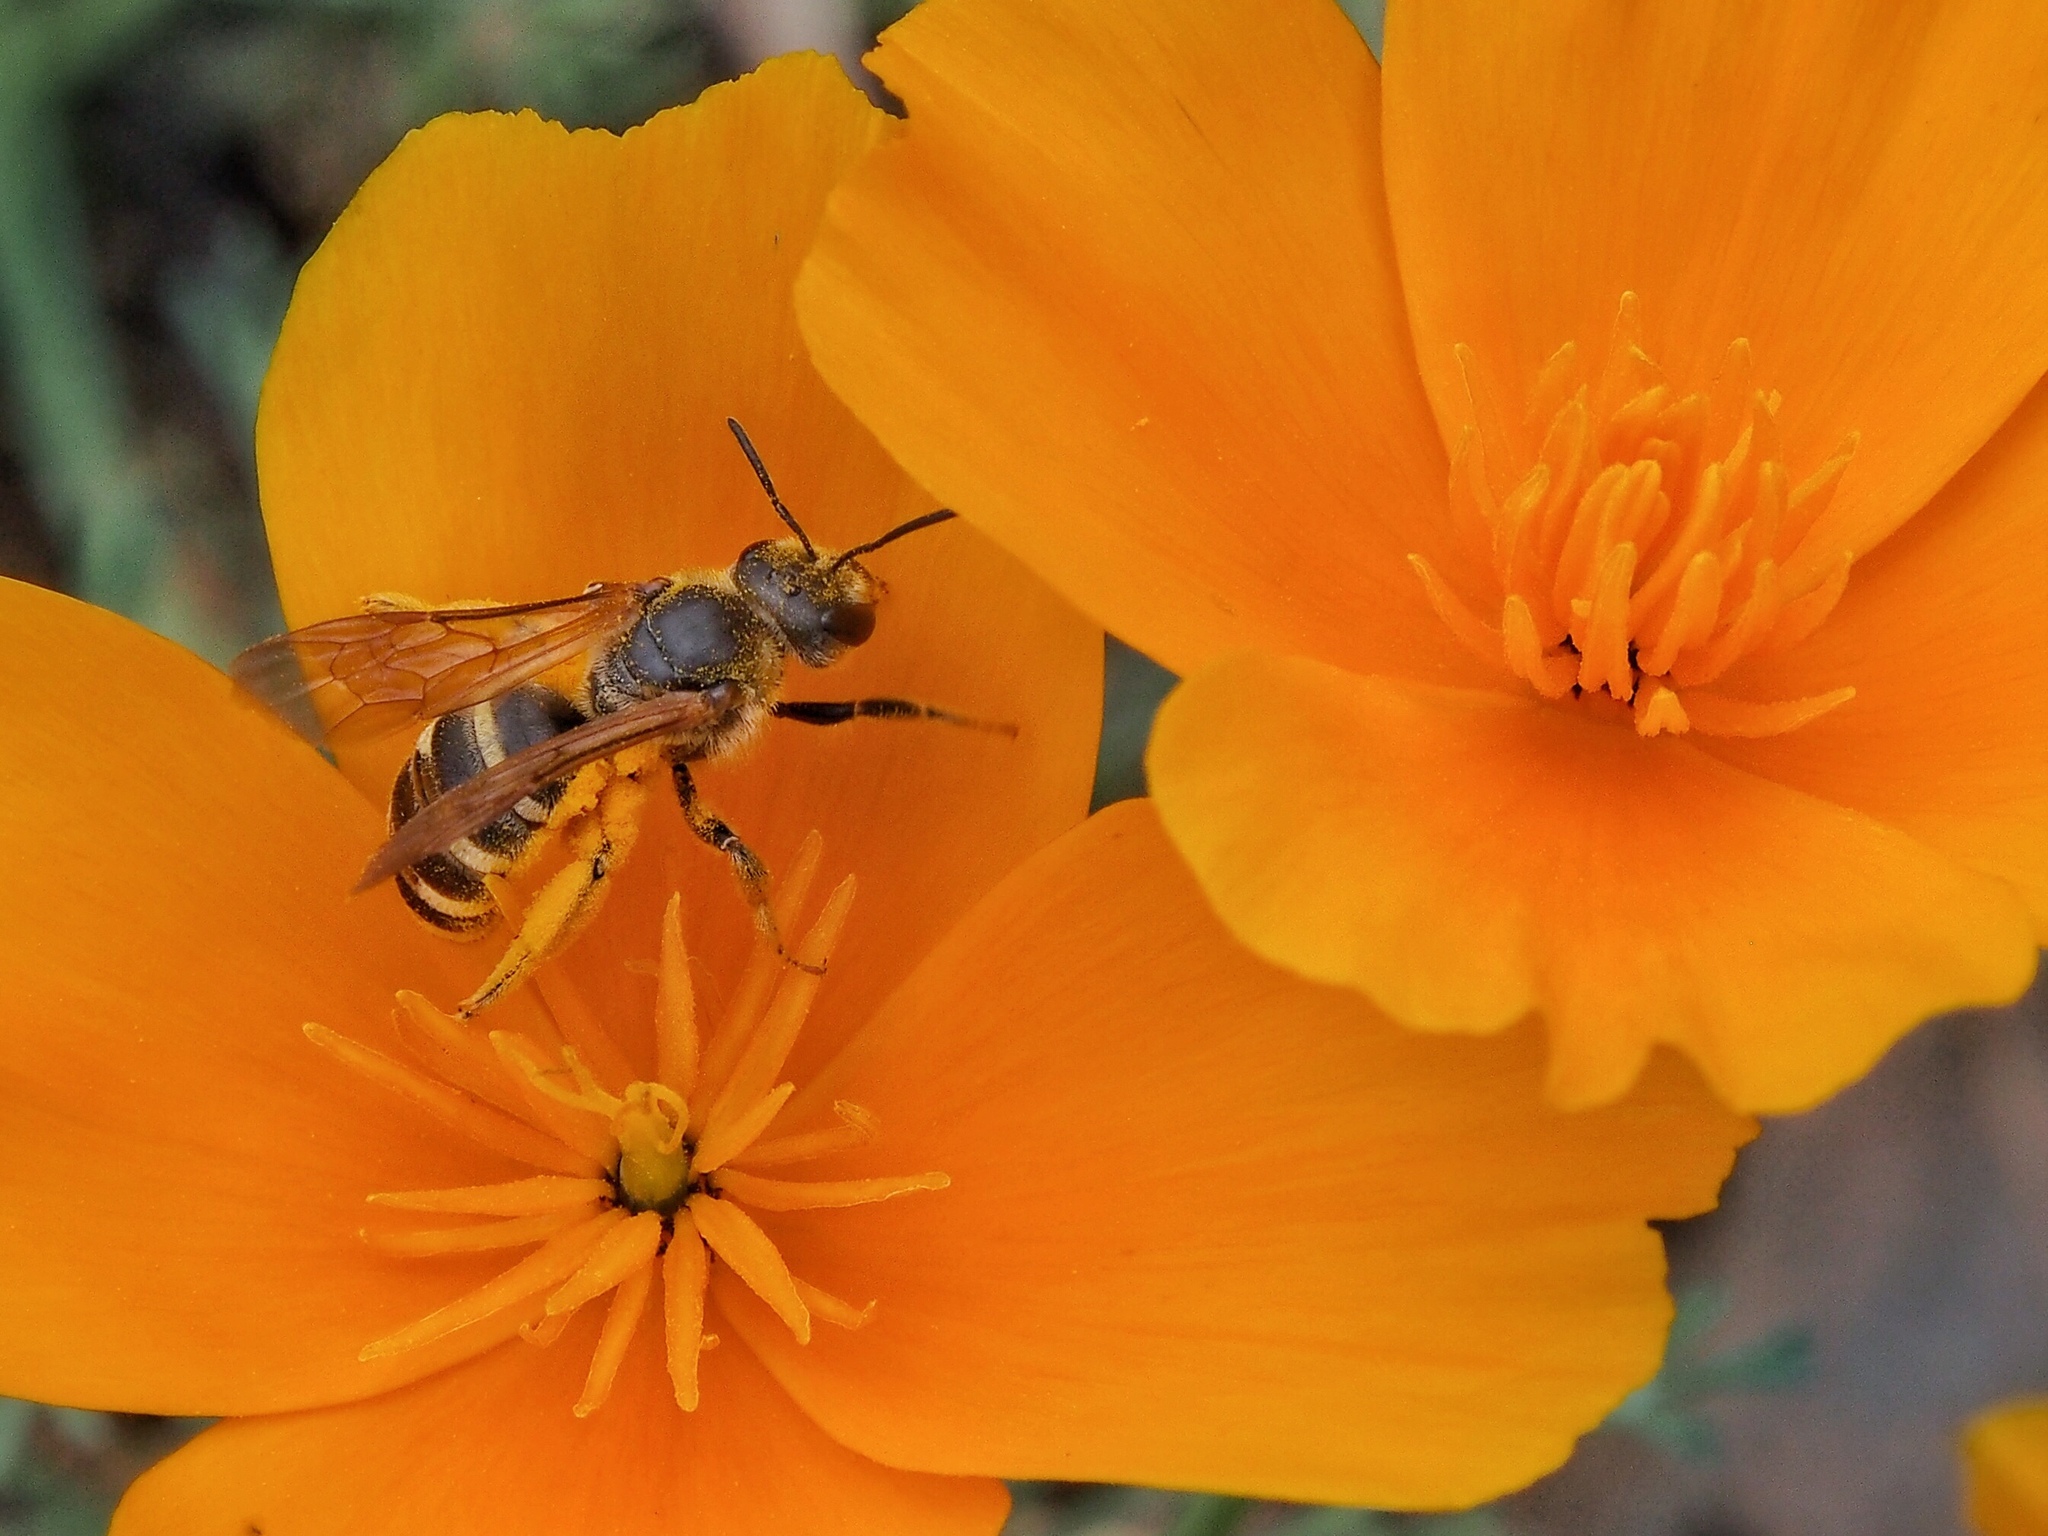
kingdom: Animalia
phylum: Arthropoda
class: Insecta
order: Hymenoptera
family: Halictidae
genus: Halictus
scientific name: Halictus farinosus
